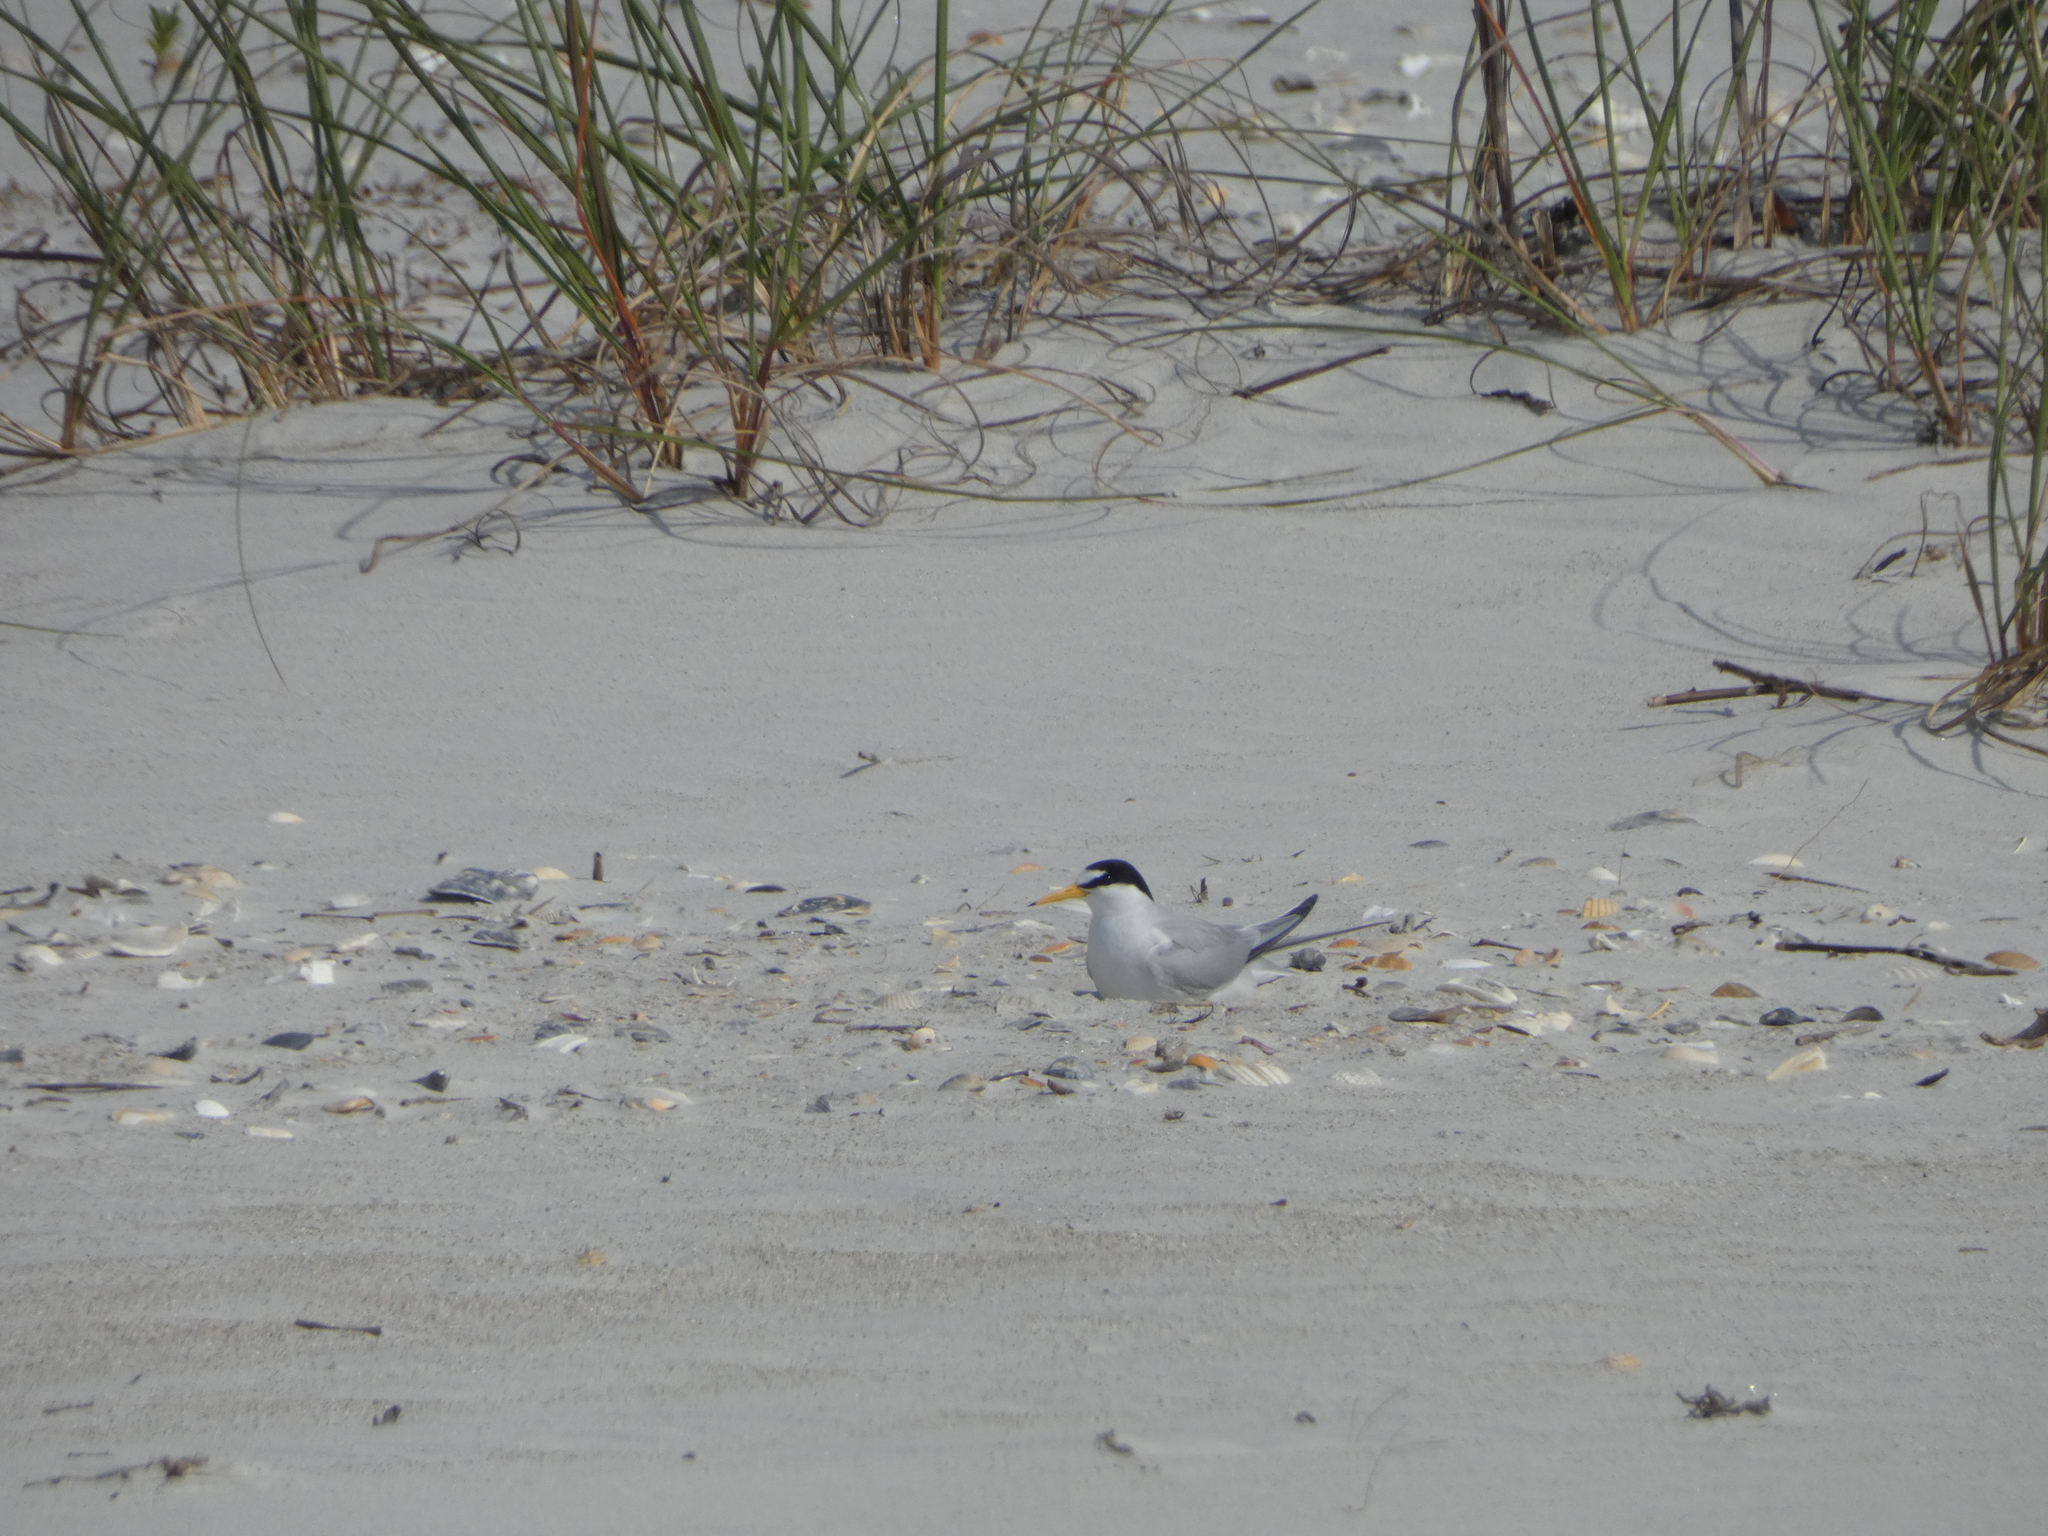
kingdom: Animalia
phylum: Chordata
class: Aves
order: Charadriiformes
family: Laridae
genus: Sternula
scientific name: Sternula antillarum
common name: Least tern
